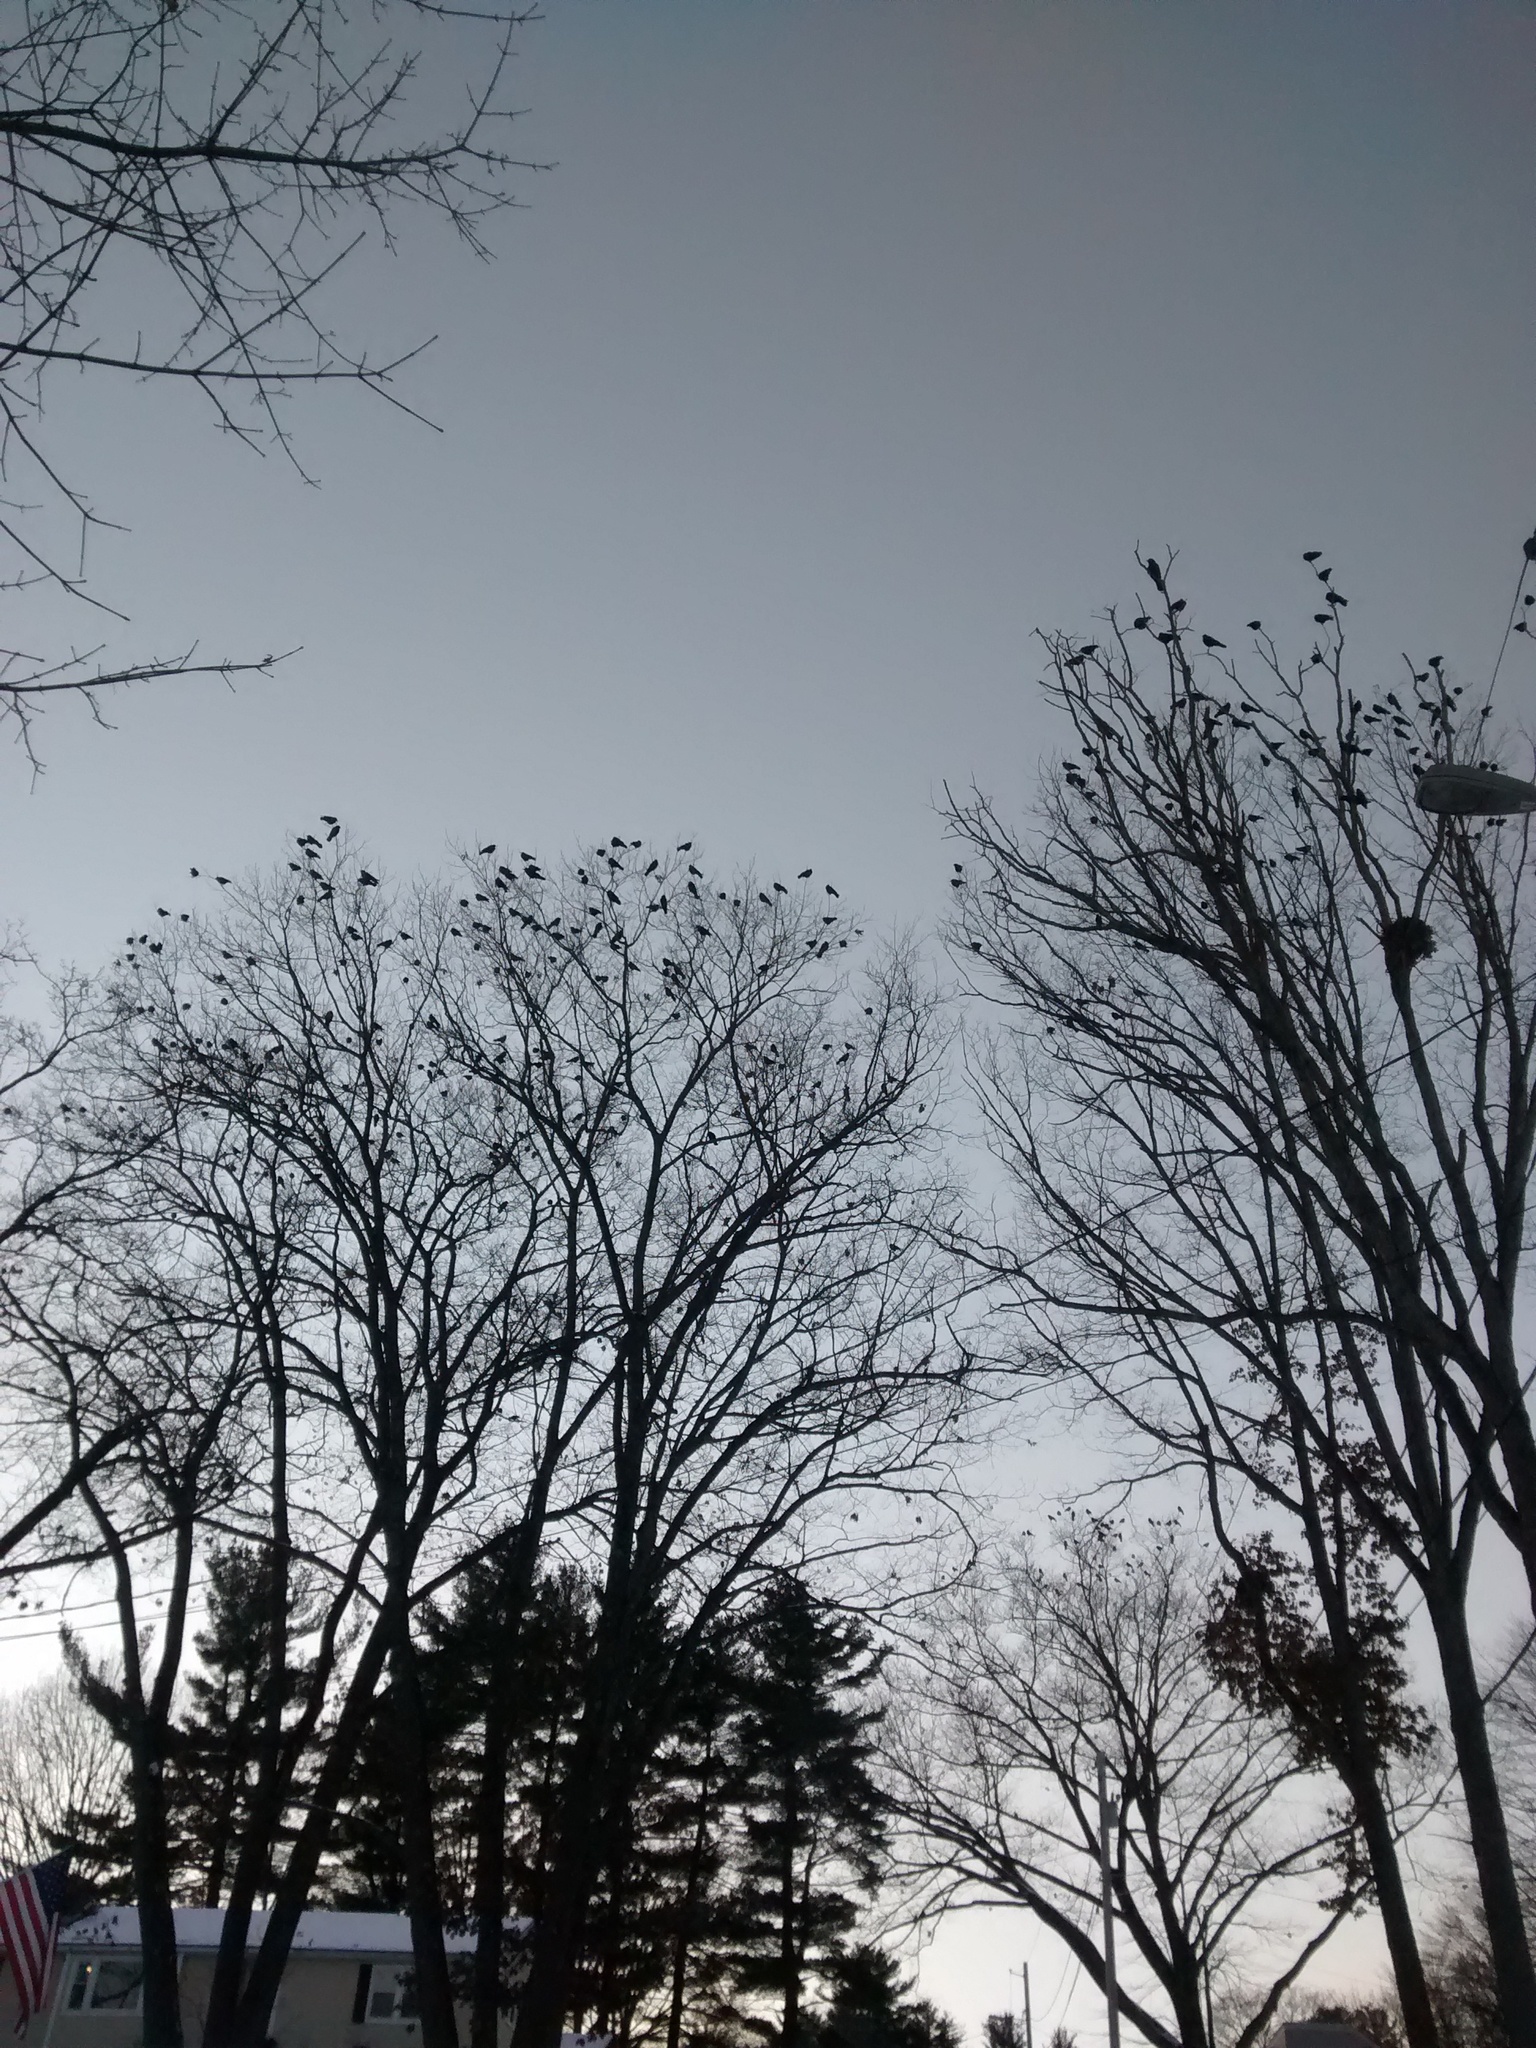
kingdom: Animalia
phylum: Chordata
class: Aves
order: Passeriformes
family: Corvidae
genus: Corvus
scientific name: Corvus brachyrhynchos
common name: American crow
